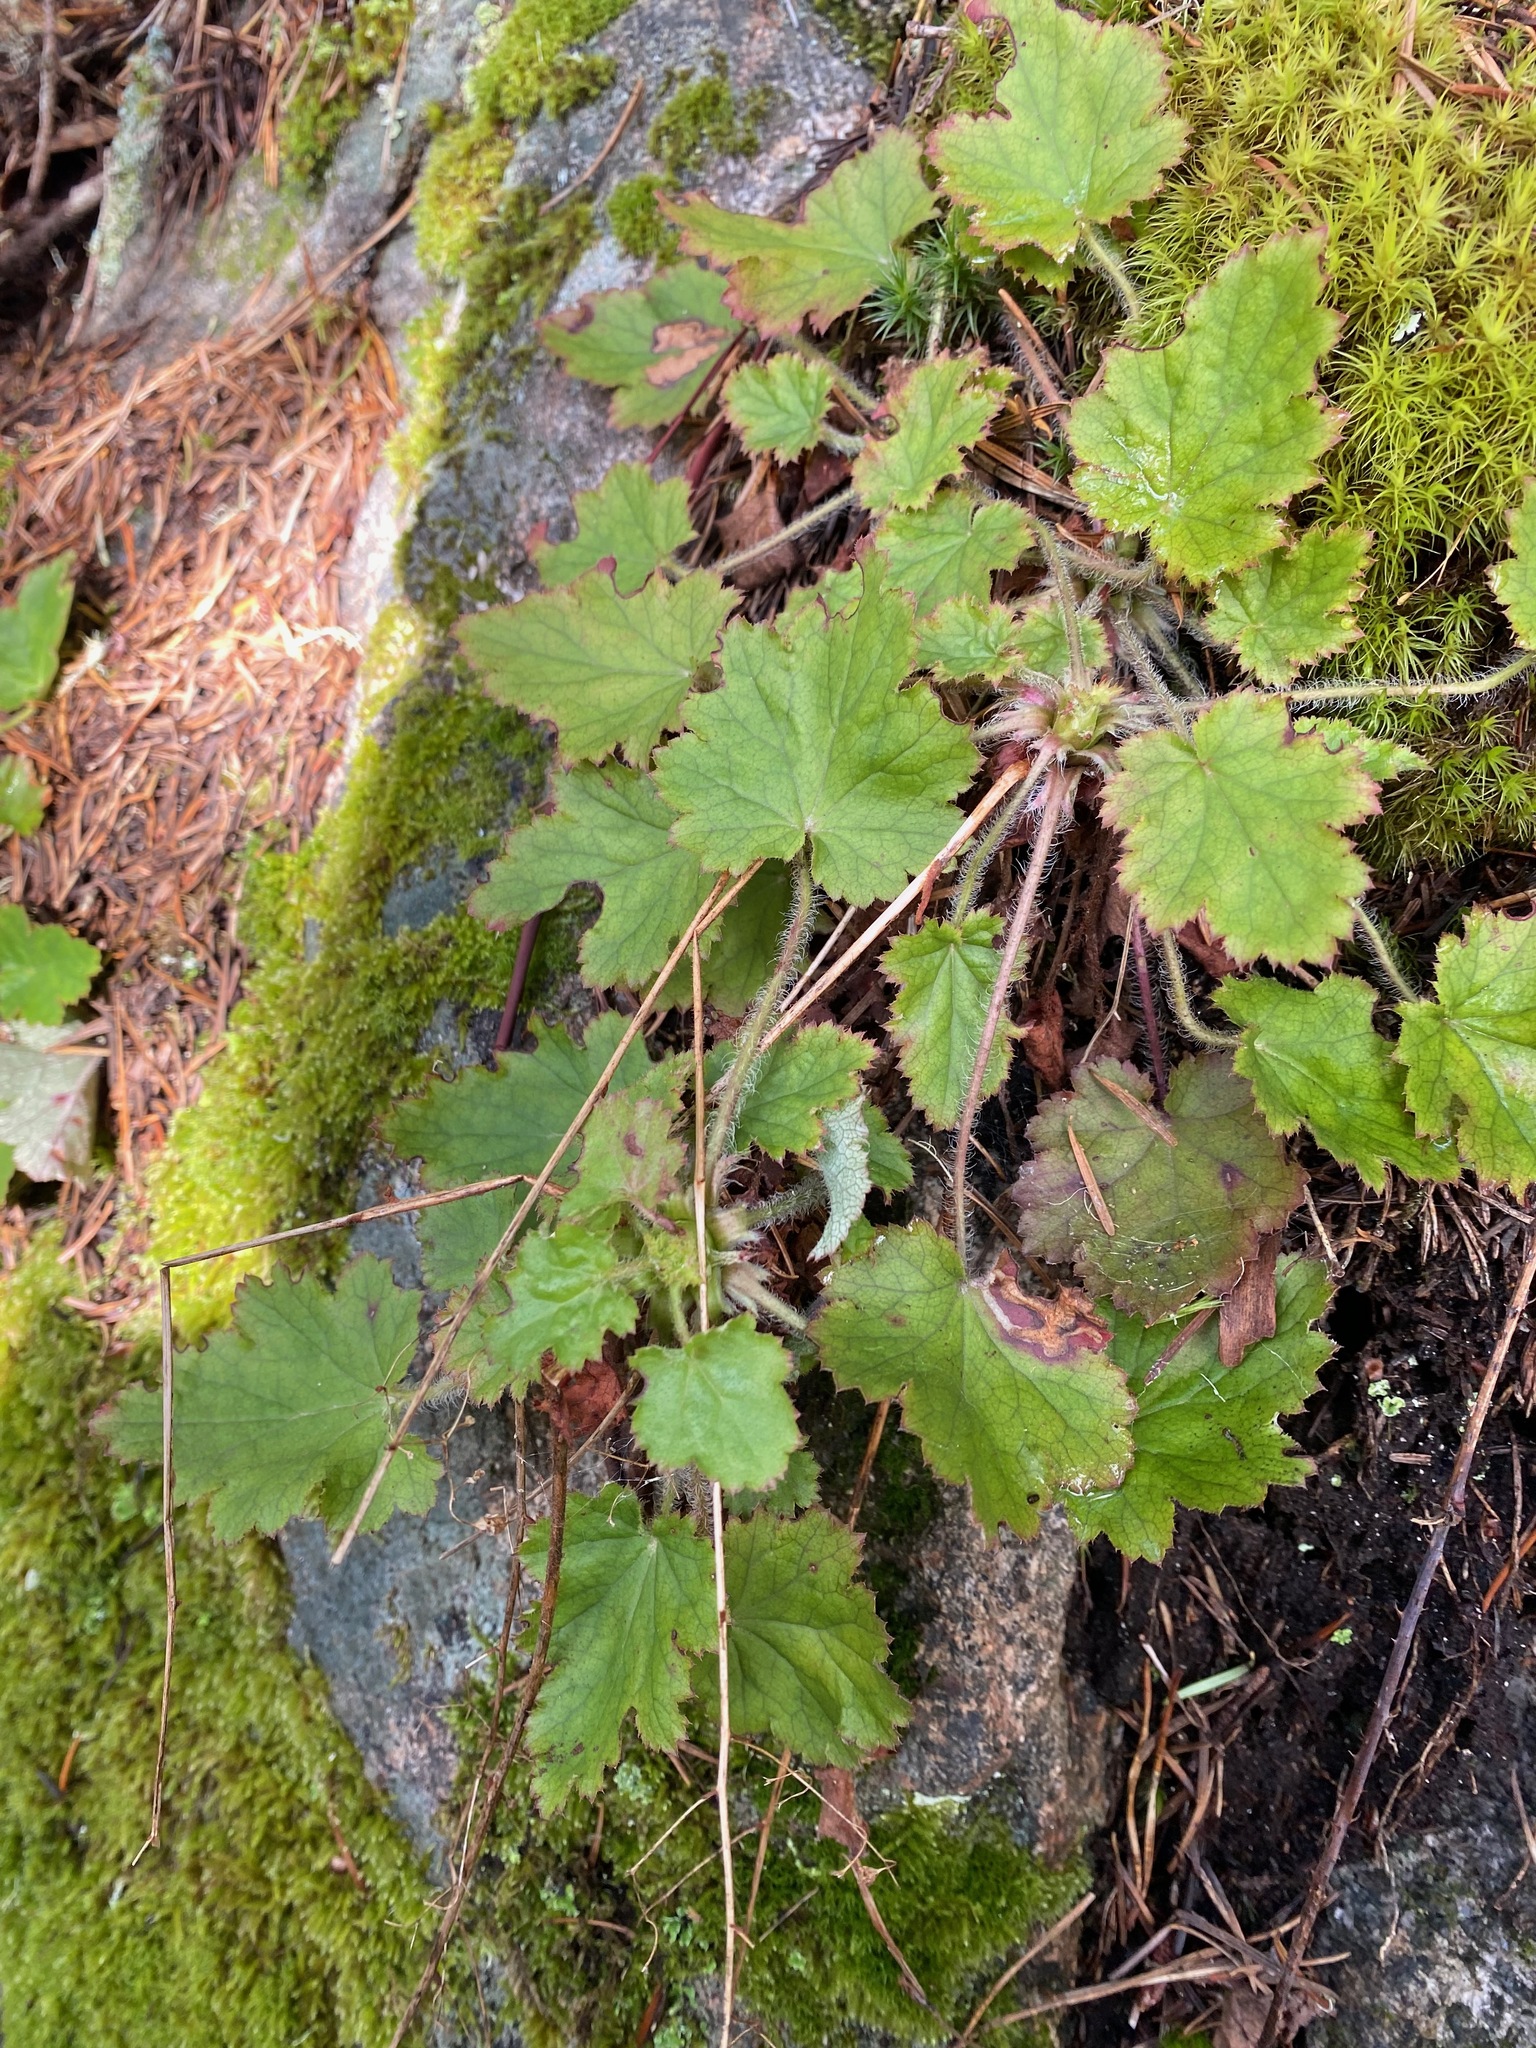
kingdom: Plantae
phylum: Tracheophyta
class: Magnoliopsida
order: Saxifragales
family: Saxifragaceae
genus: Heuchera
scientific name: Heuchera micrantha
